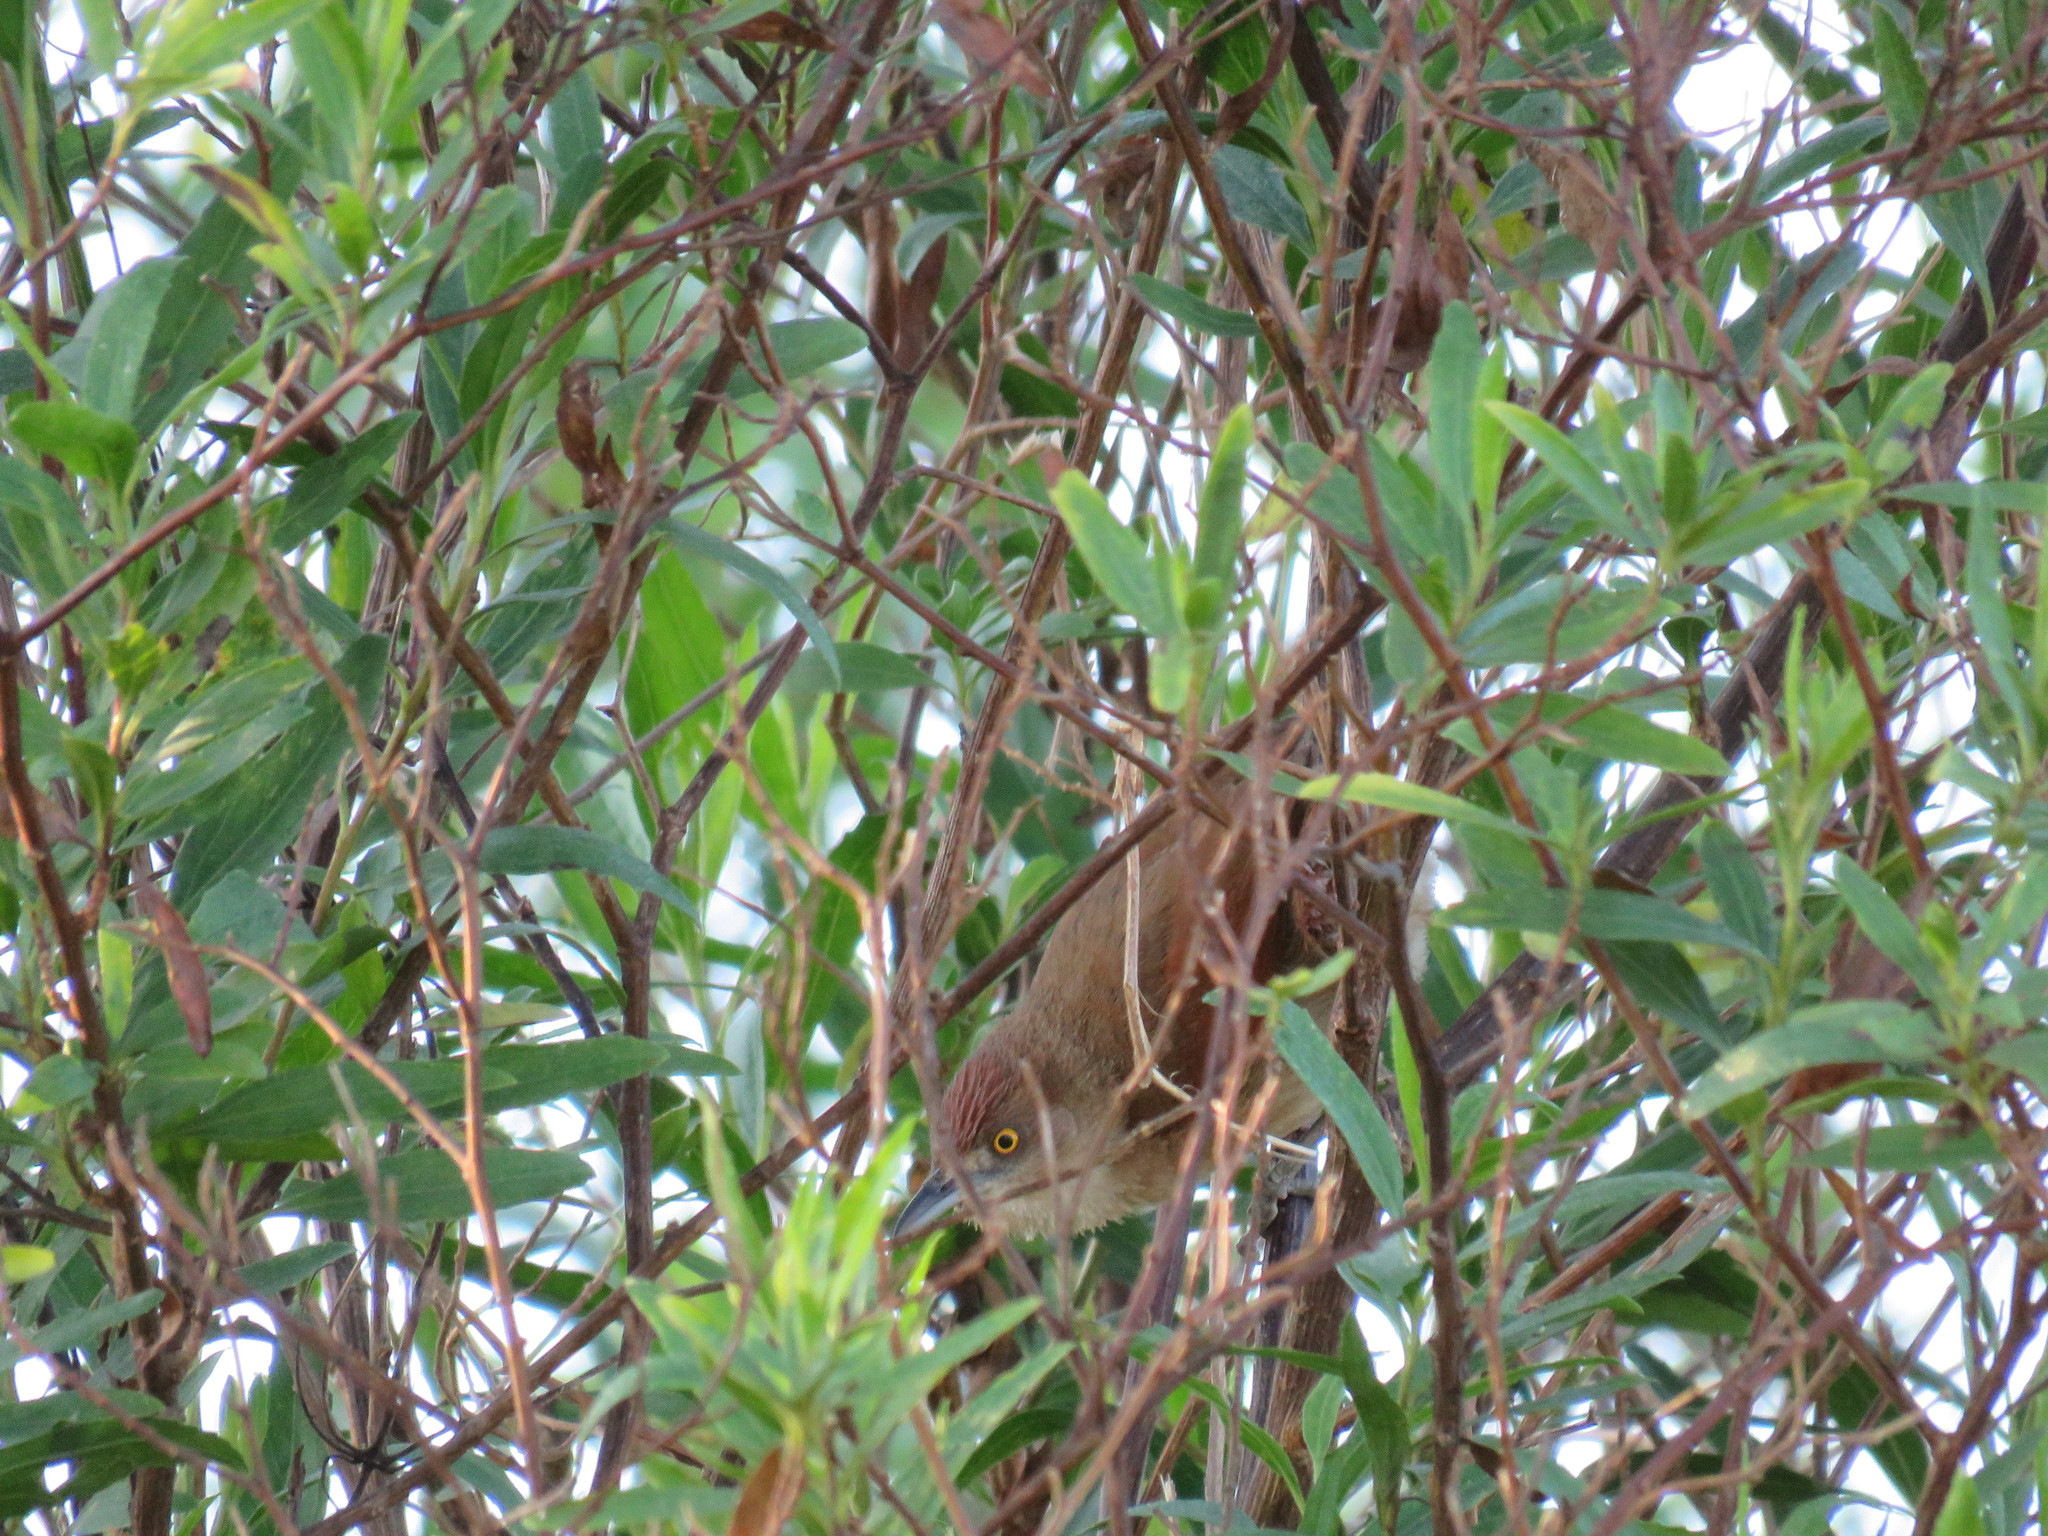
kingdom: Animalia
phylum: Chordata
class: Aves
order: Passeriformes
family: Furnariidae
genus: Phacellodomus
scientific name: Phacellodomus ruber
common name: Greater thornbird
